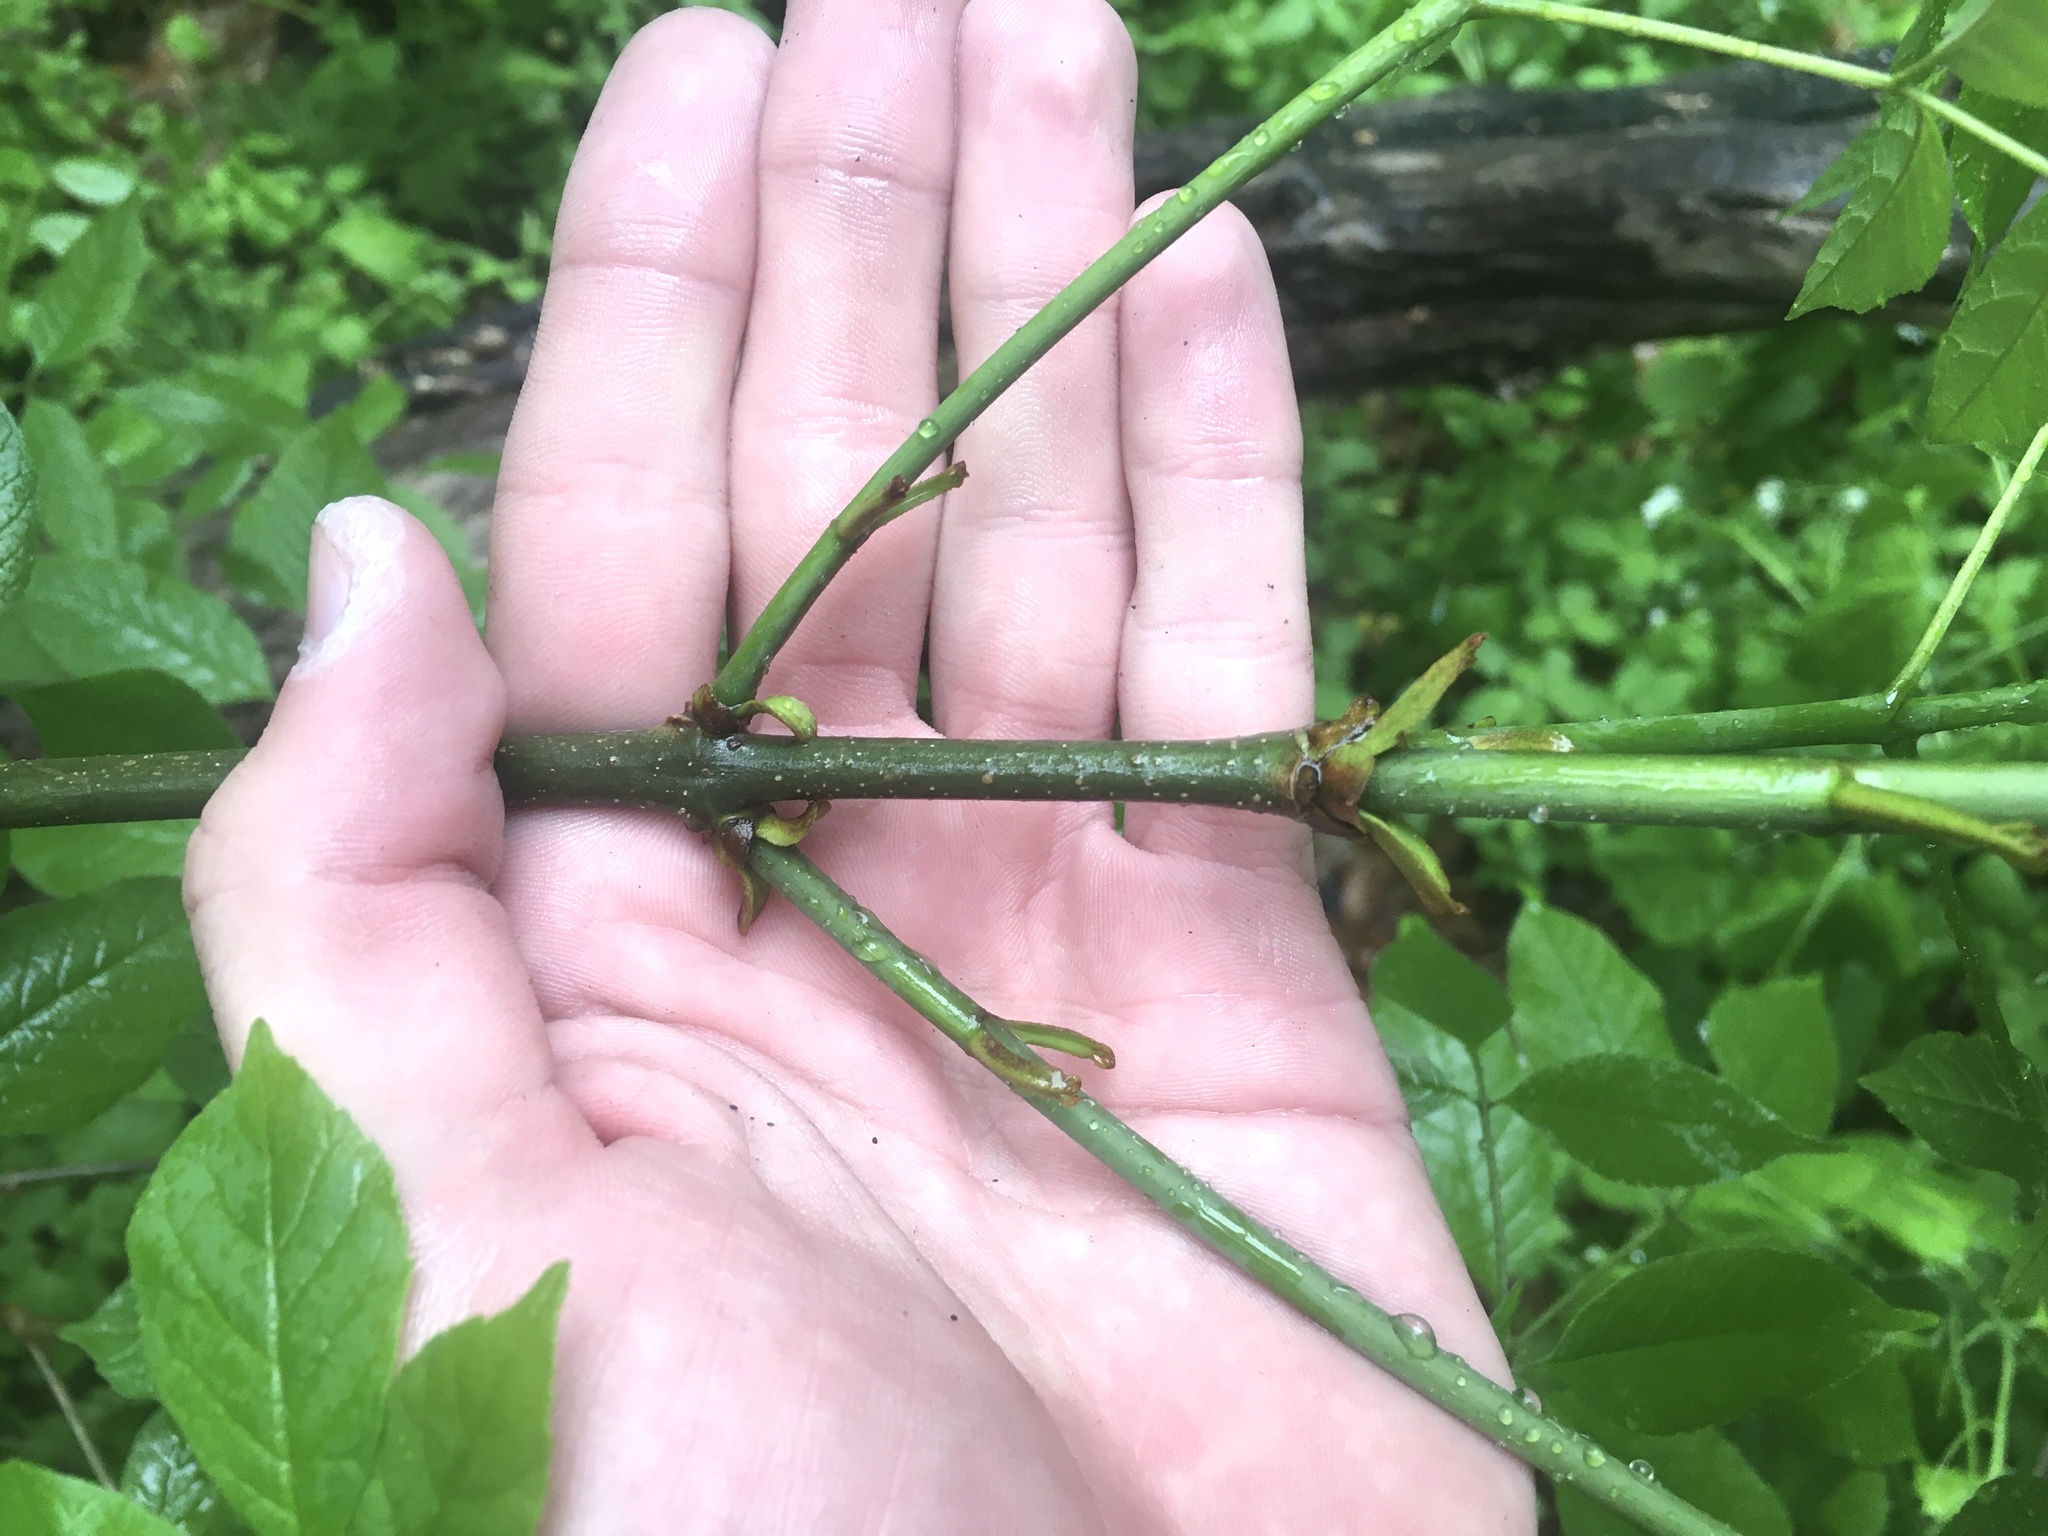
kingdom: Plantae
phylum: Tracheophyta
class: Magnoliopsida
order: Lamiales
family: Oleaceae
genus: Fraxinus
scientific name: Fraxinus americana
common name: White ash
